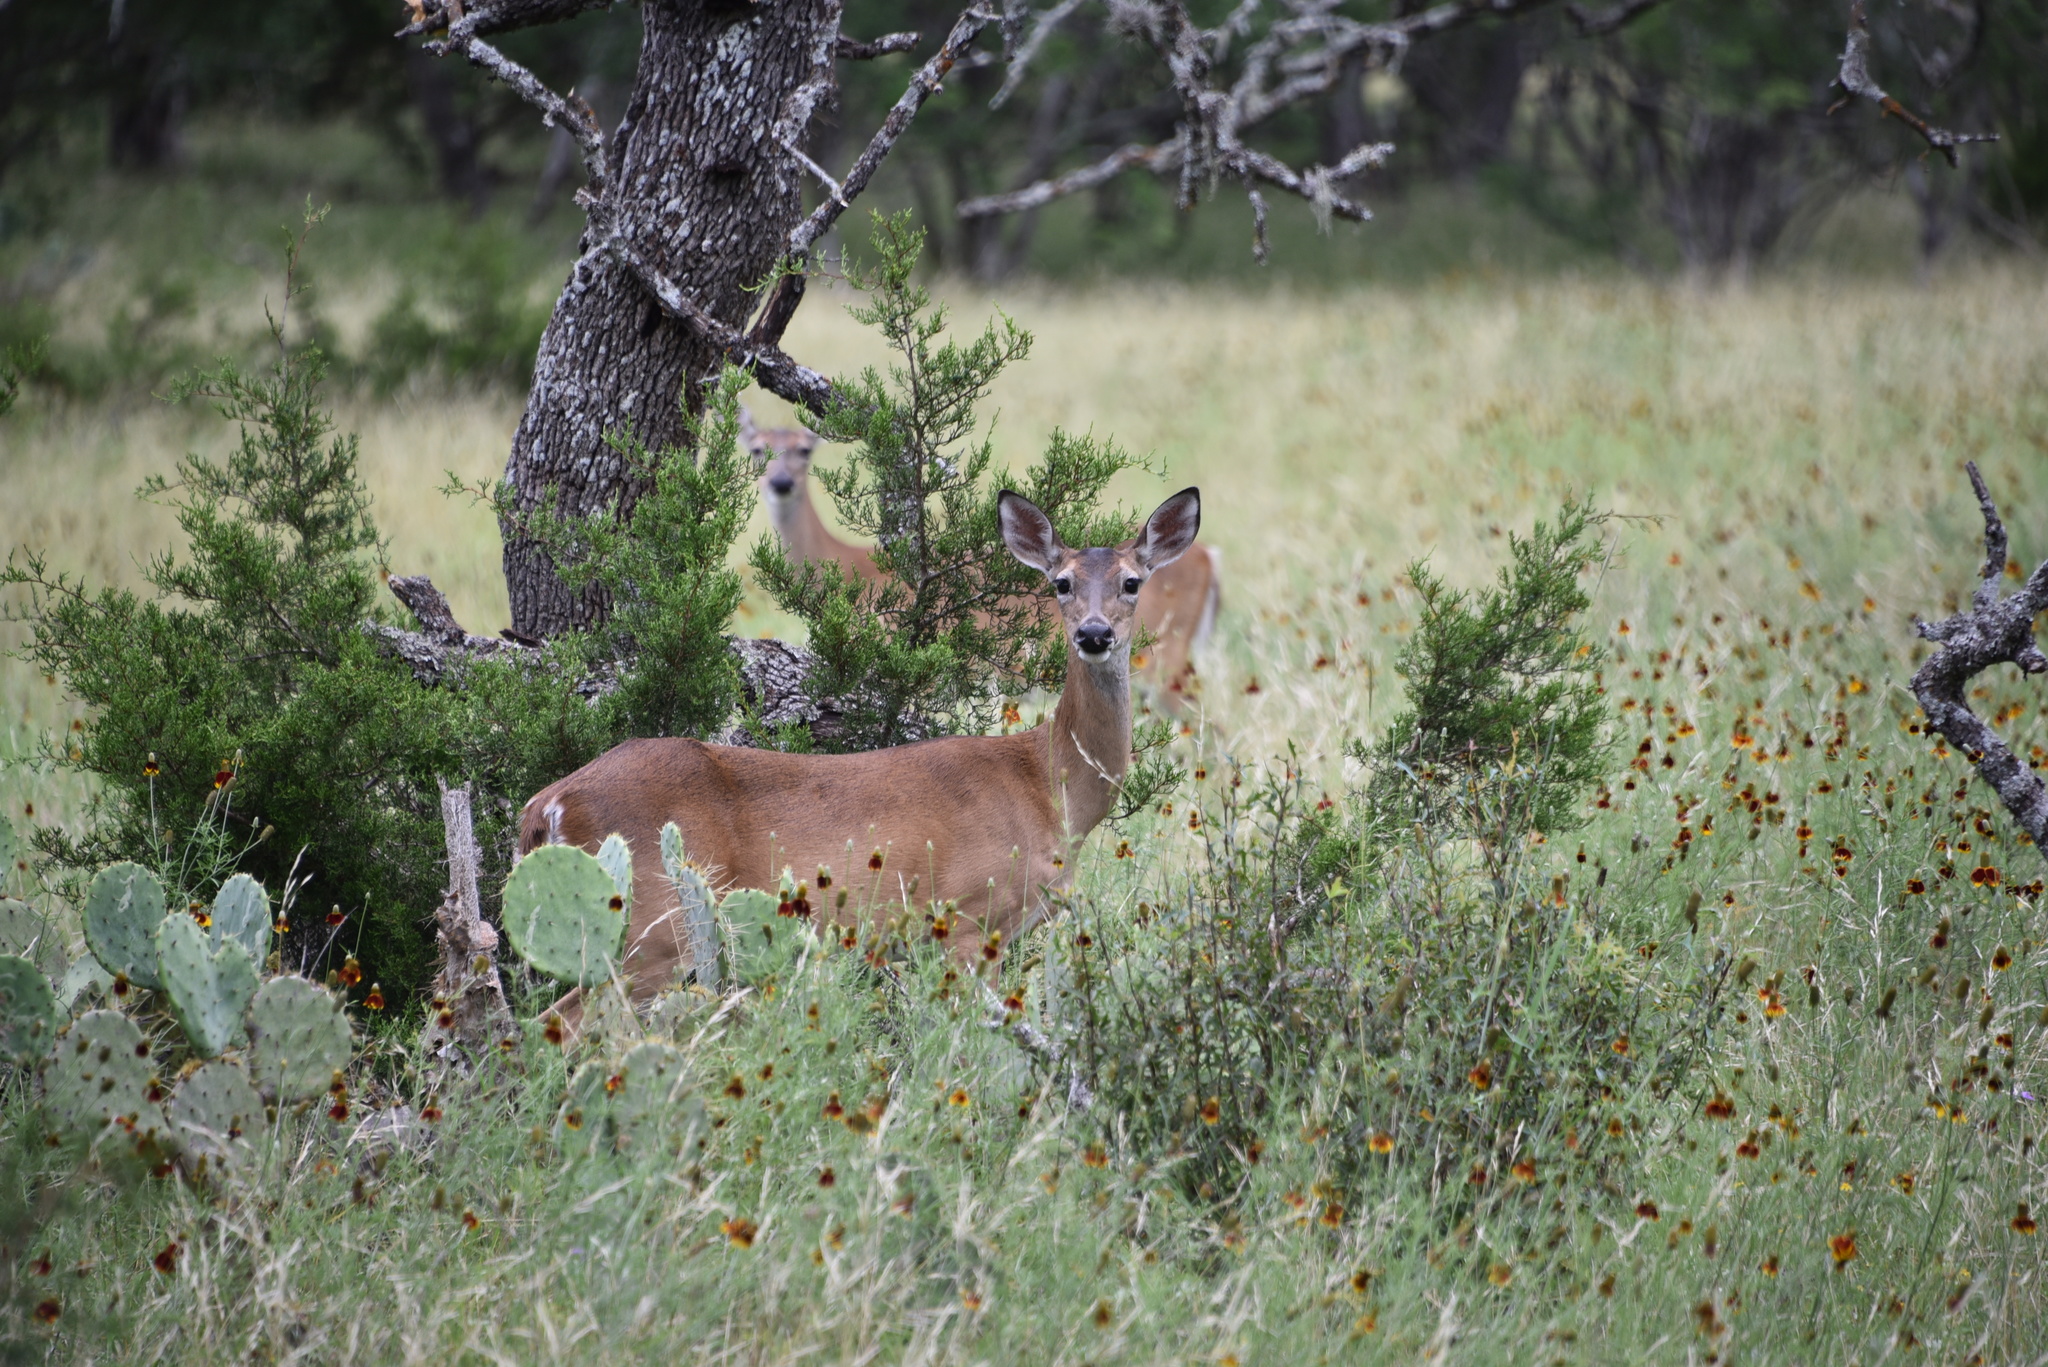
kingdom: Animalia
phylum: Chordata
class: Mammalia
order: Artiodactyla
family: Cervidae
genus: Odocoileus
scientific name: Odocoileus virginianus
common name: White-tailed deer
